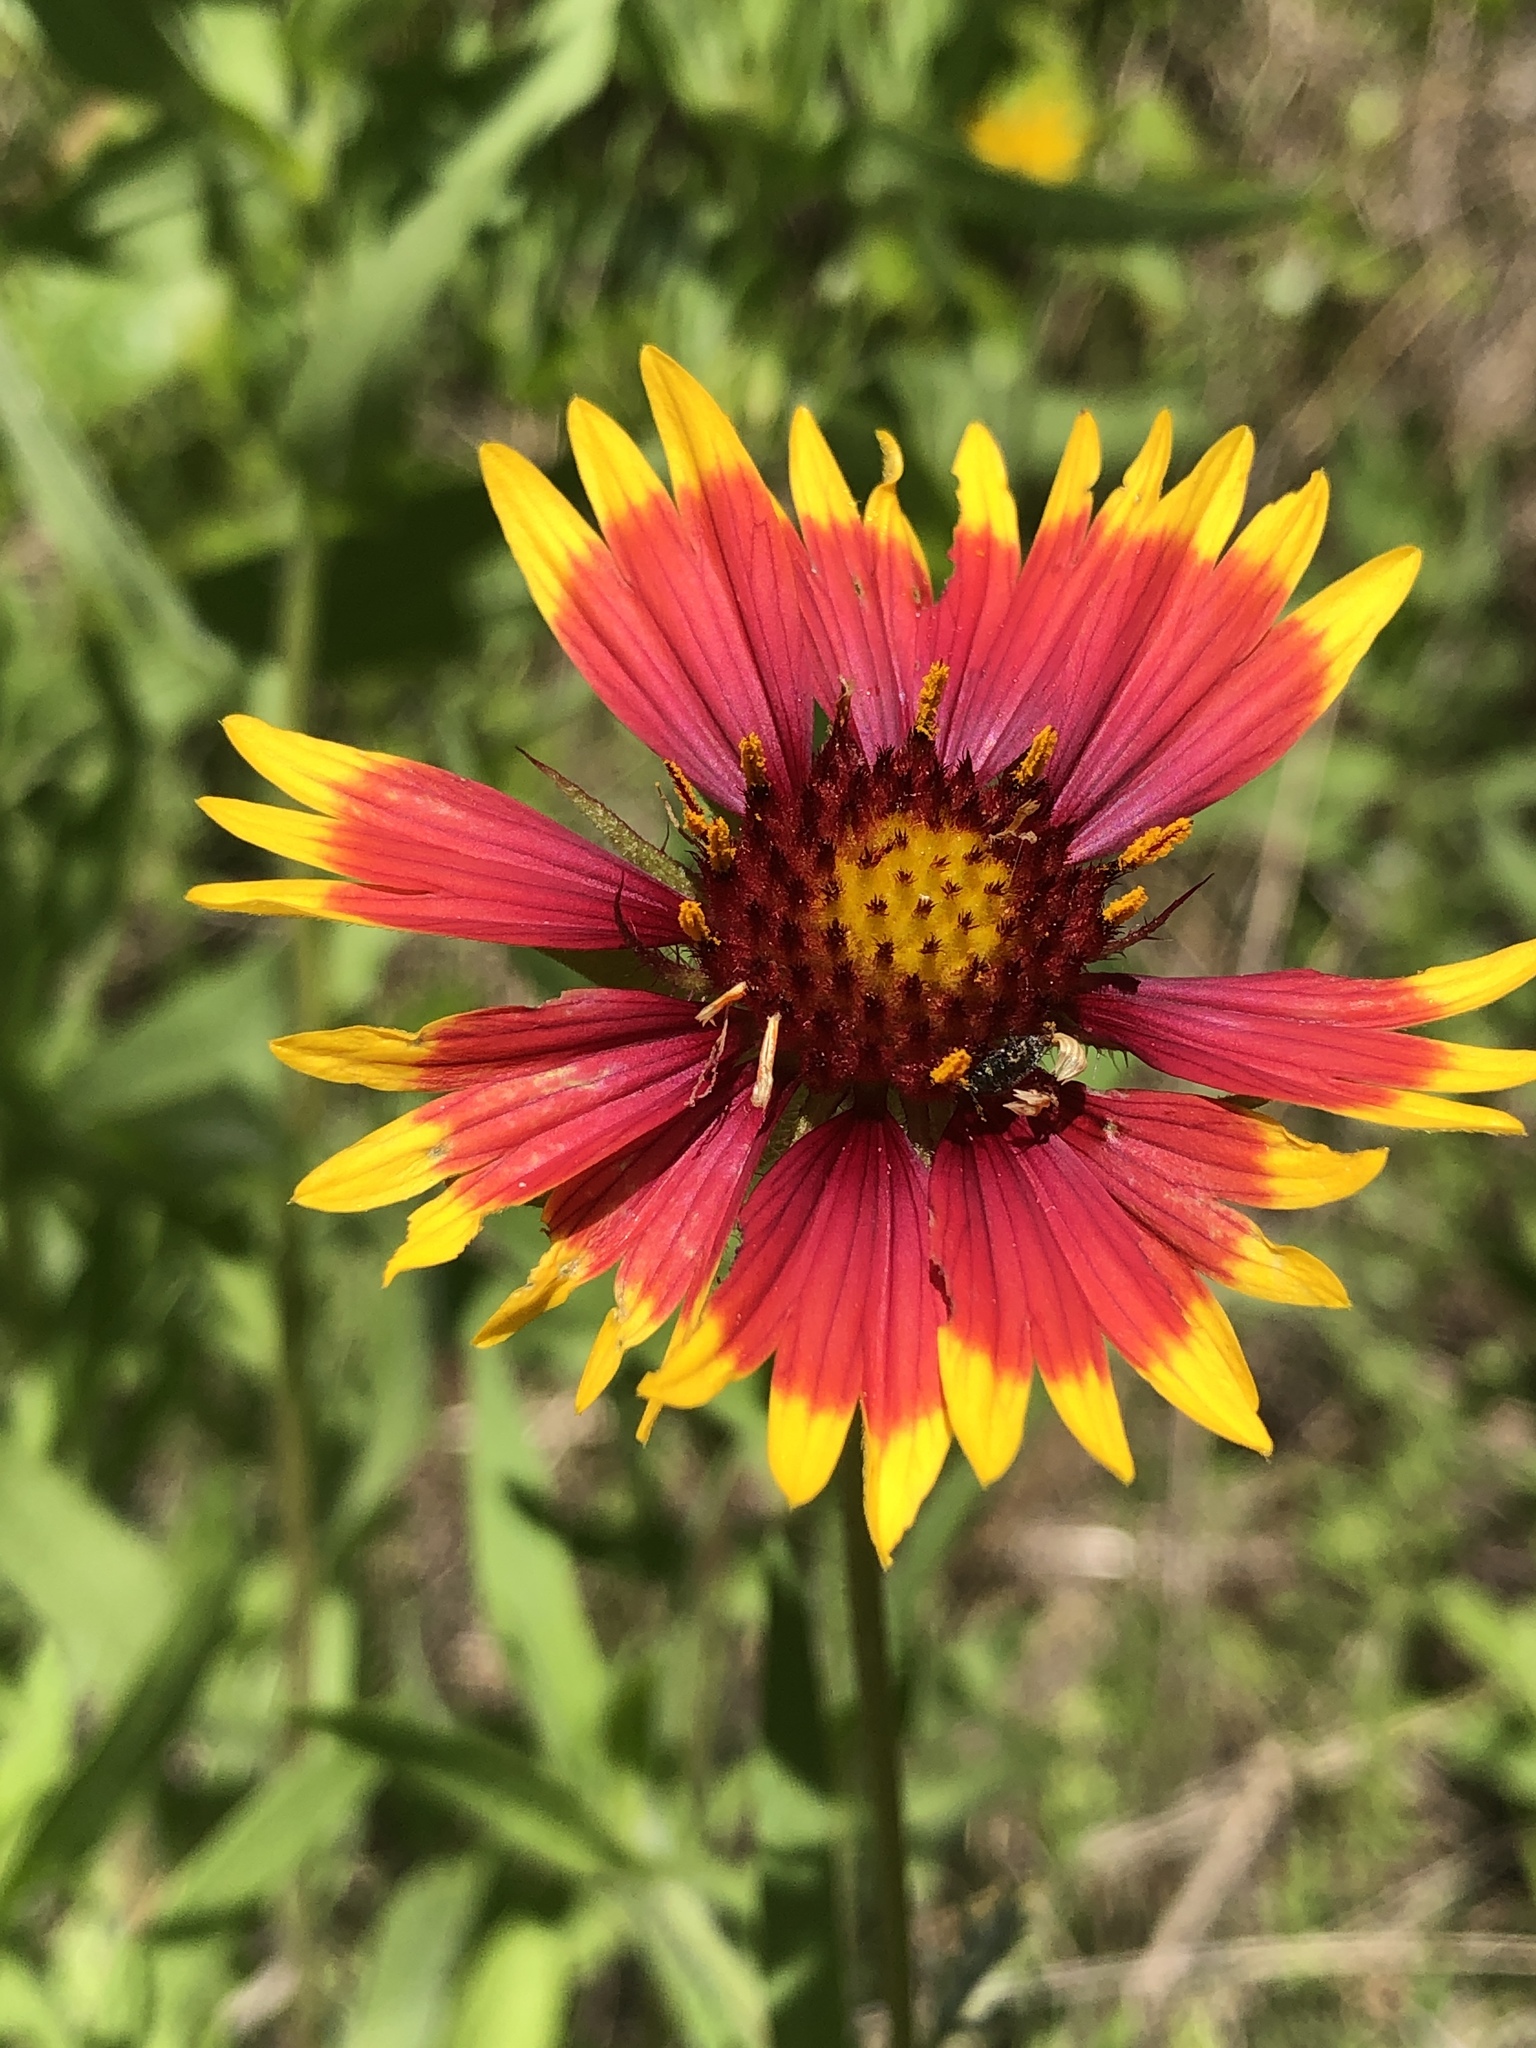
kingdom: Plantae
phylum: Tracheophyta
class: Magnoliopsida
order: Asterales
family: Asteraceae
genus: Gaillardia
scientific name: Gaillardia pulchella
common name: Firewheel
